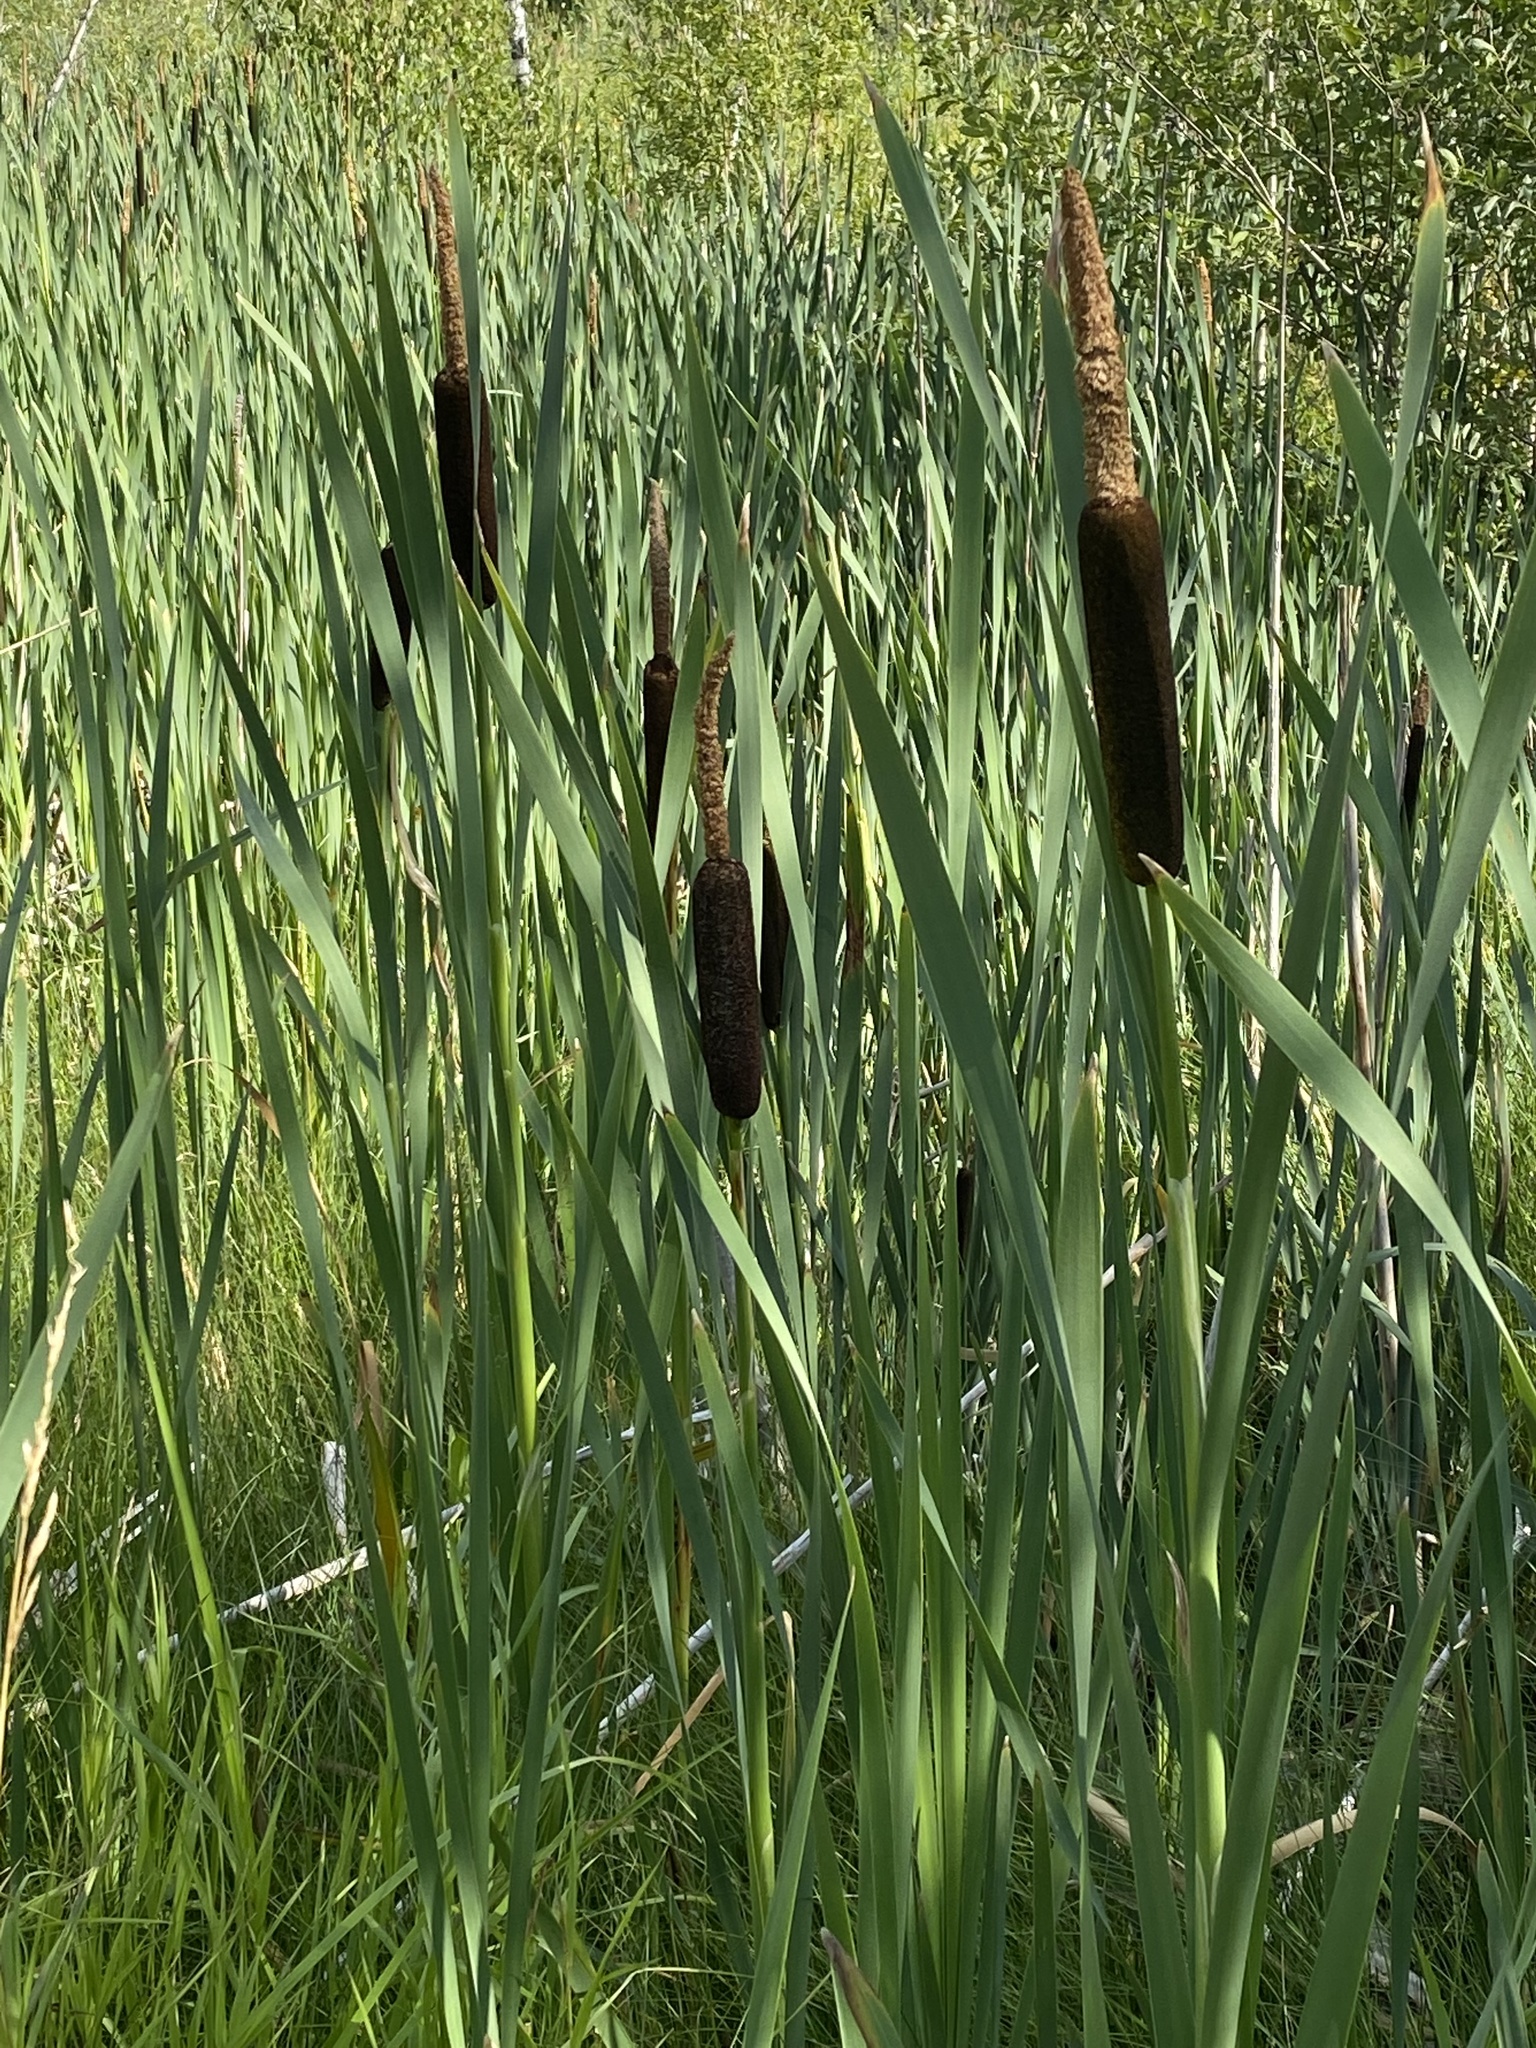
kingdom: Plantae
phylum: Tracheophyta
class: Liliopsida
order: Poales
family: Typhaceae
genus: Typha
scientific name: Typha latifolia
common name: Broadleaf cattail
